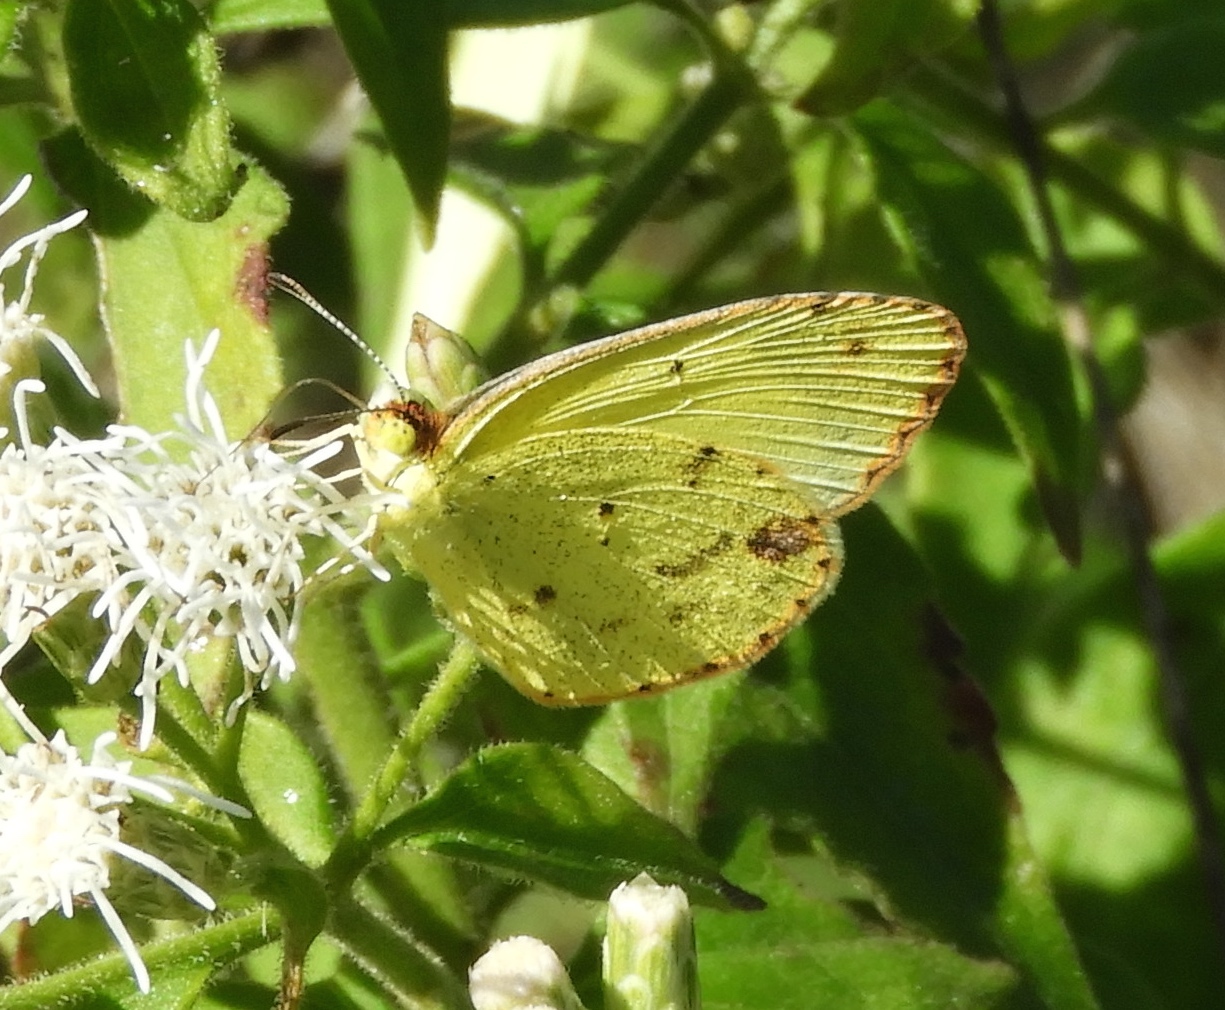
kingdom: Animalia
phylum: Arthropoda
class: Insecta
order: Lepidoptera
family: Pieridae
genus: Pyrisitia
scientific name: Pyrisitia
